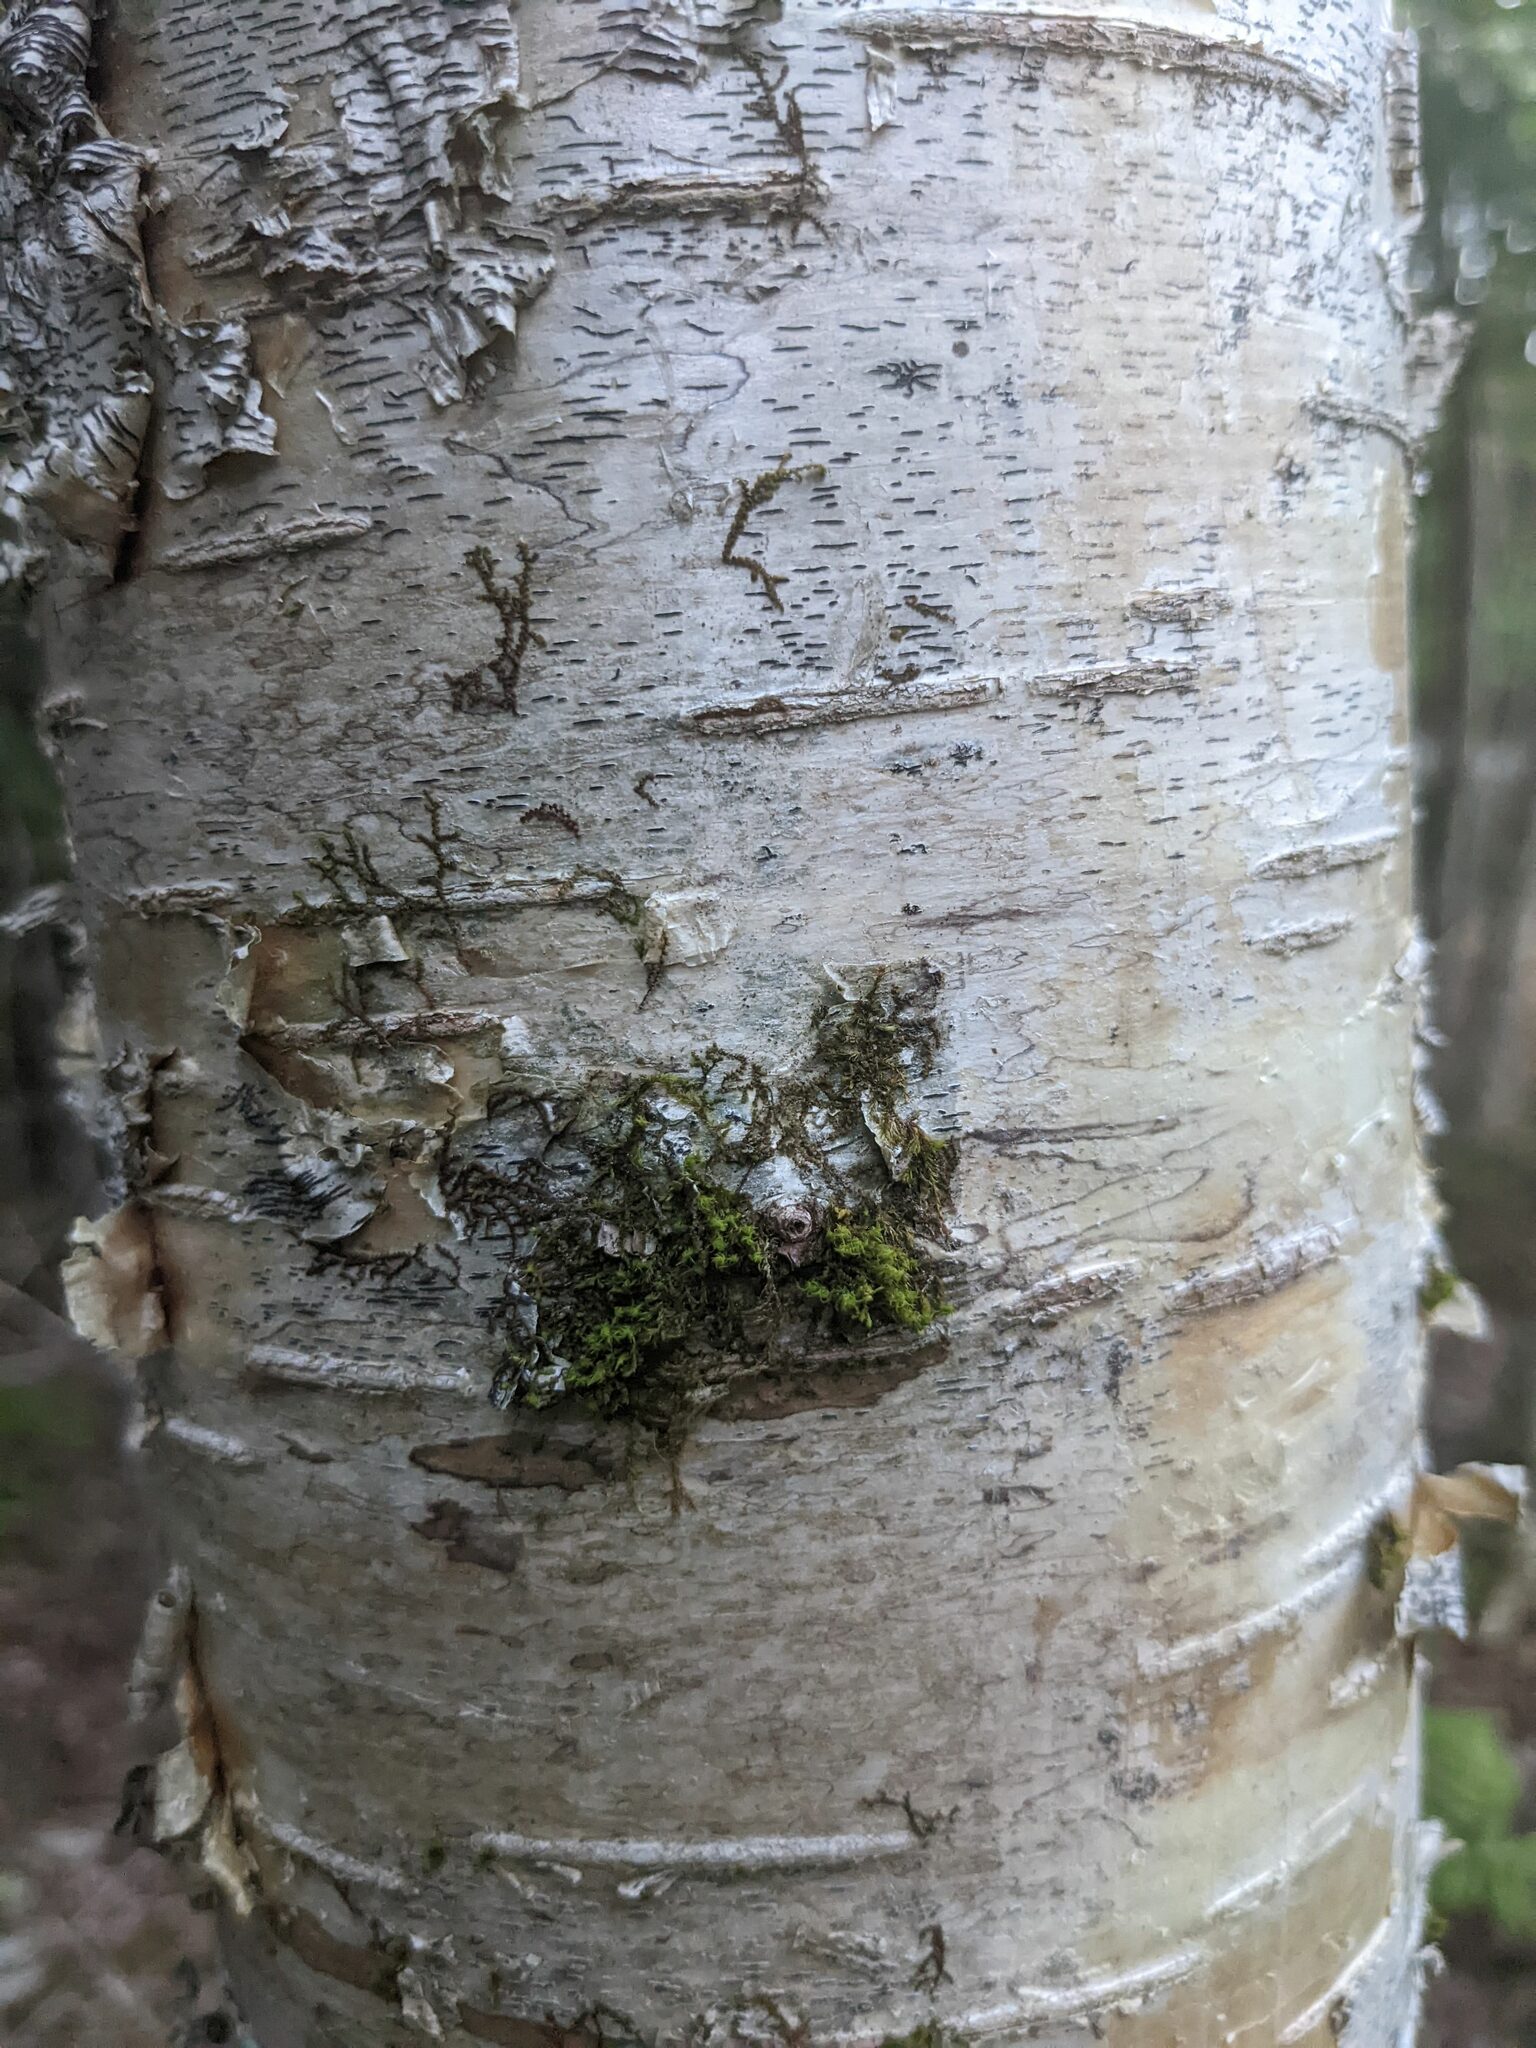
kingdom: Plantae
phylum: Bryophyta
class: Bryopsida
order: Orthotrichales
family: Orthotrichaceae
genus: Ulota
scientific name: Ulota crispa
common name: Crisped pincushion moss
